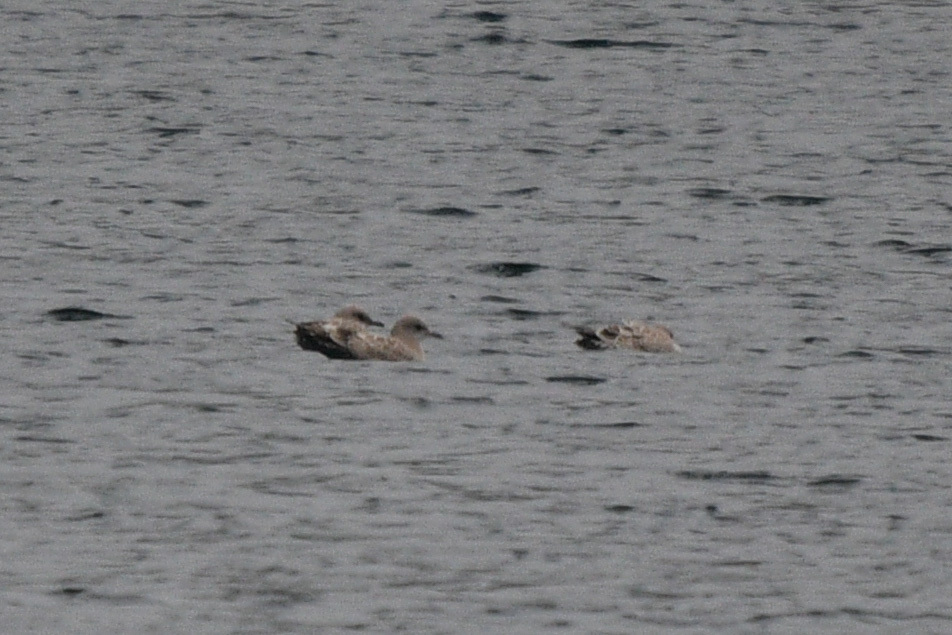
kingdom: Animalia
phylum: Chordata
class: Aves
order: Charadriiformes
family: Laridae
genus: Larus
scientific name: Larus brachyrhynchus
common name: Short-billed gull
